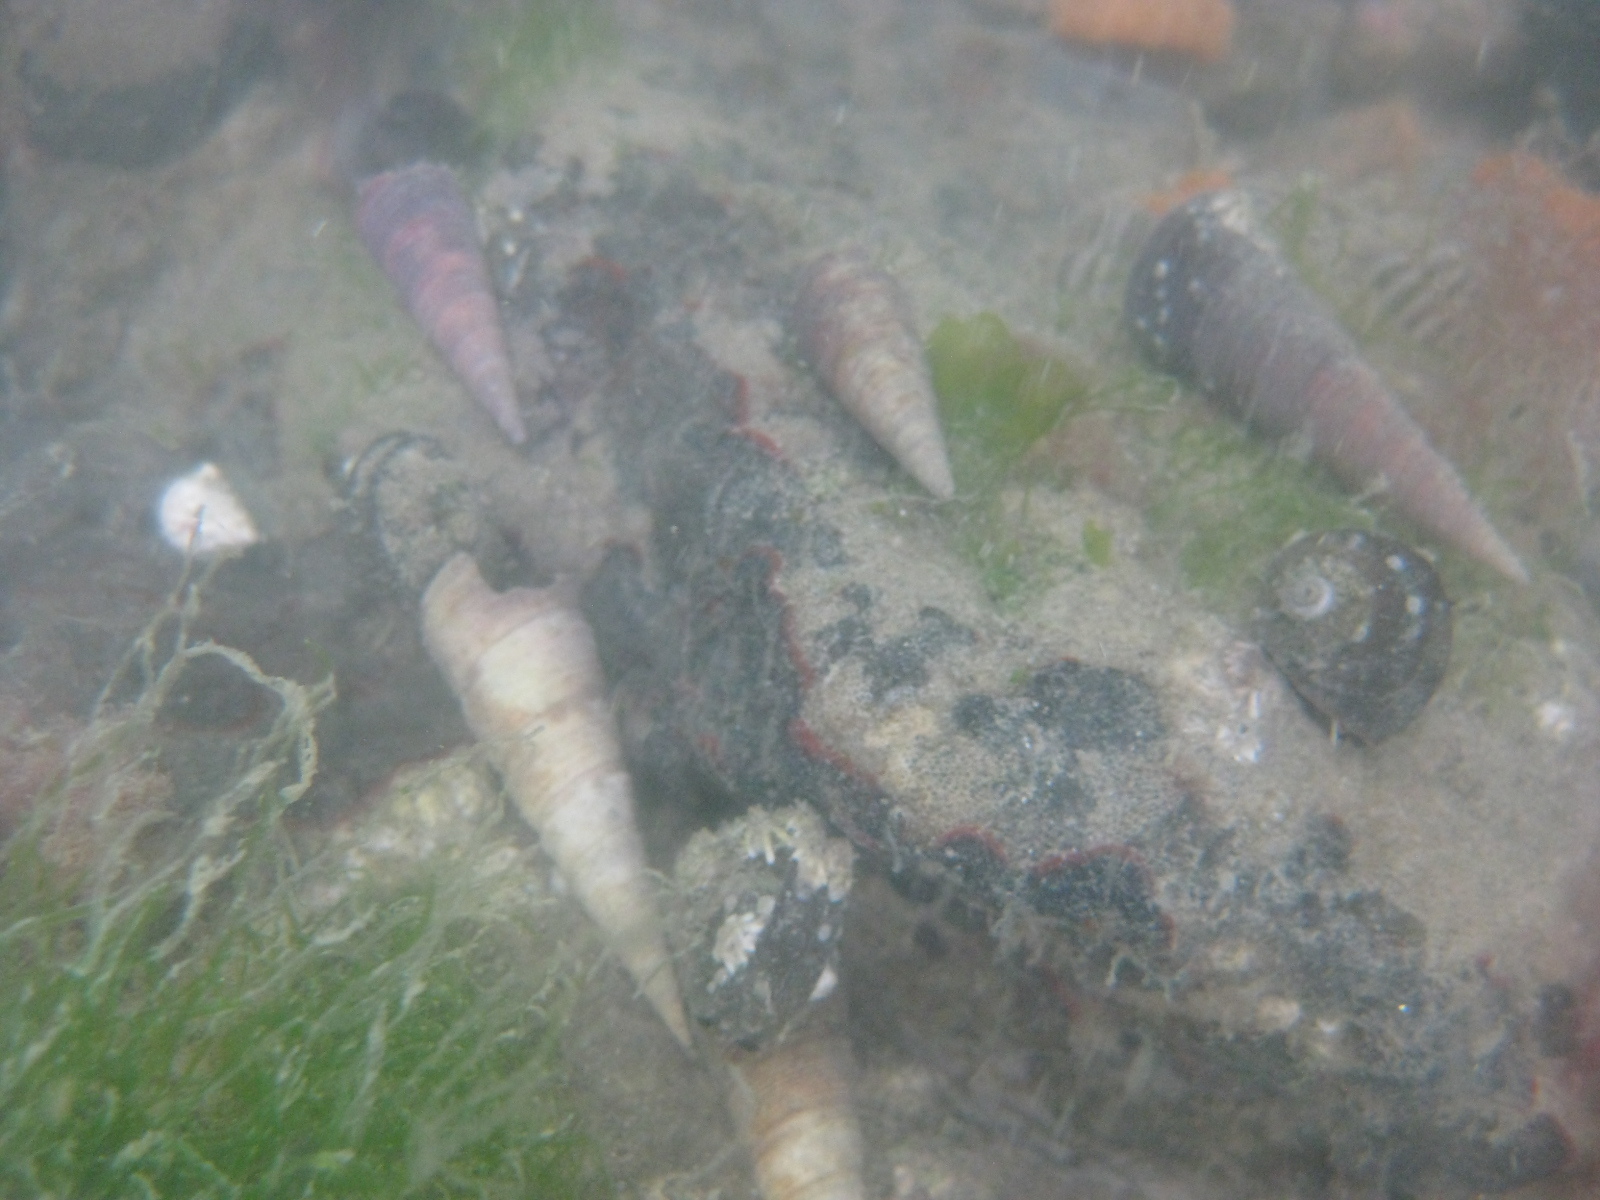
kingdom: Animalia
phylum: Mollusca
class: Gastropoda
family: Turritellidae
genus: Maoricolpus
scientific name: Maoricolpus roseus
